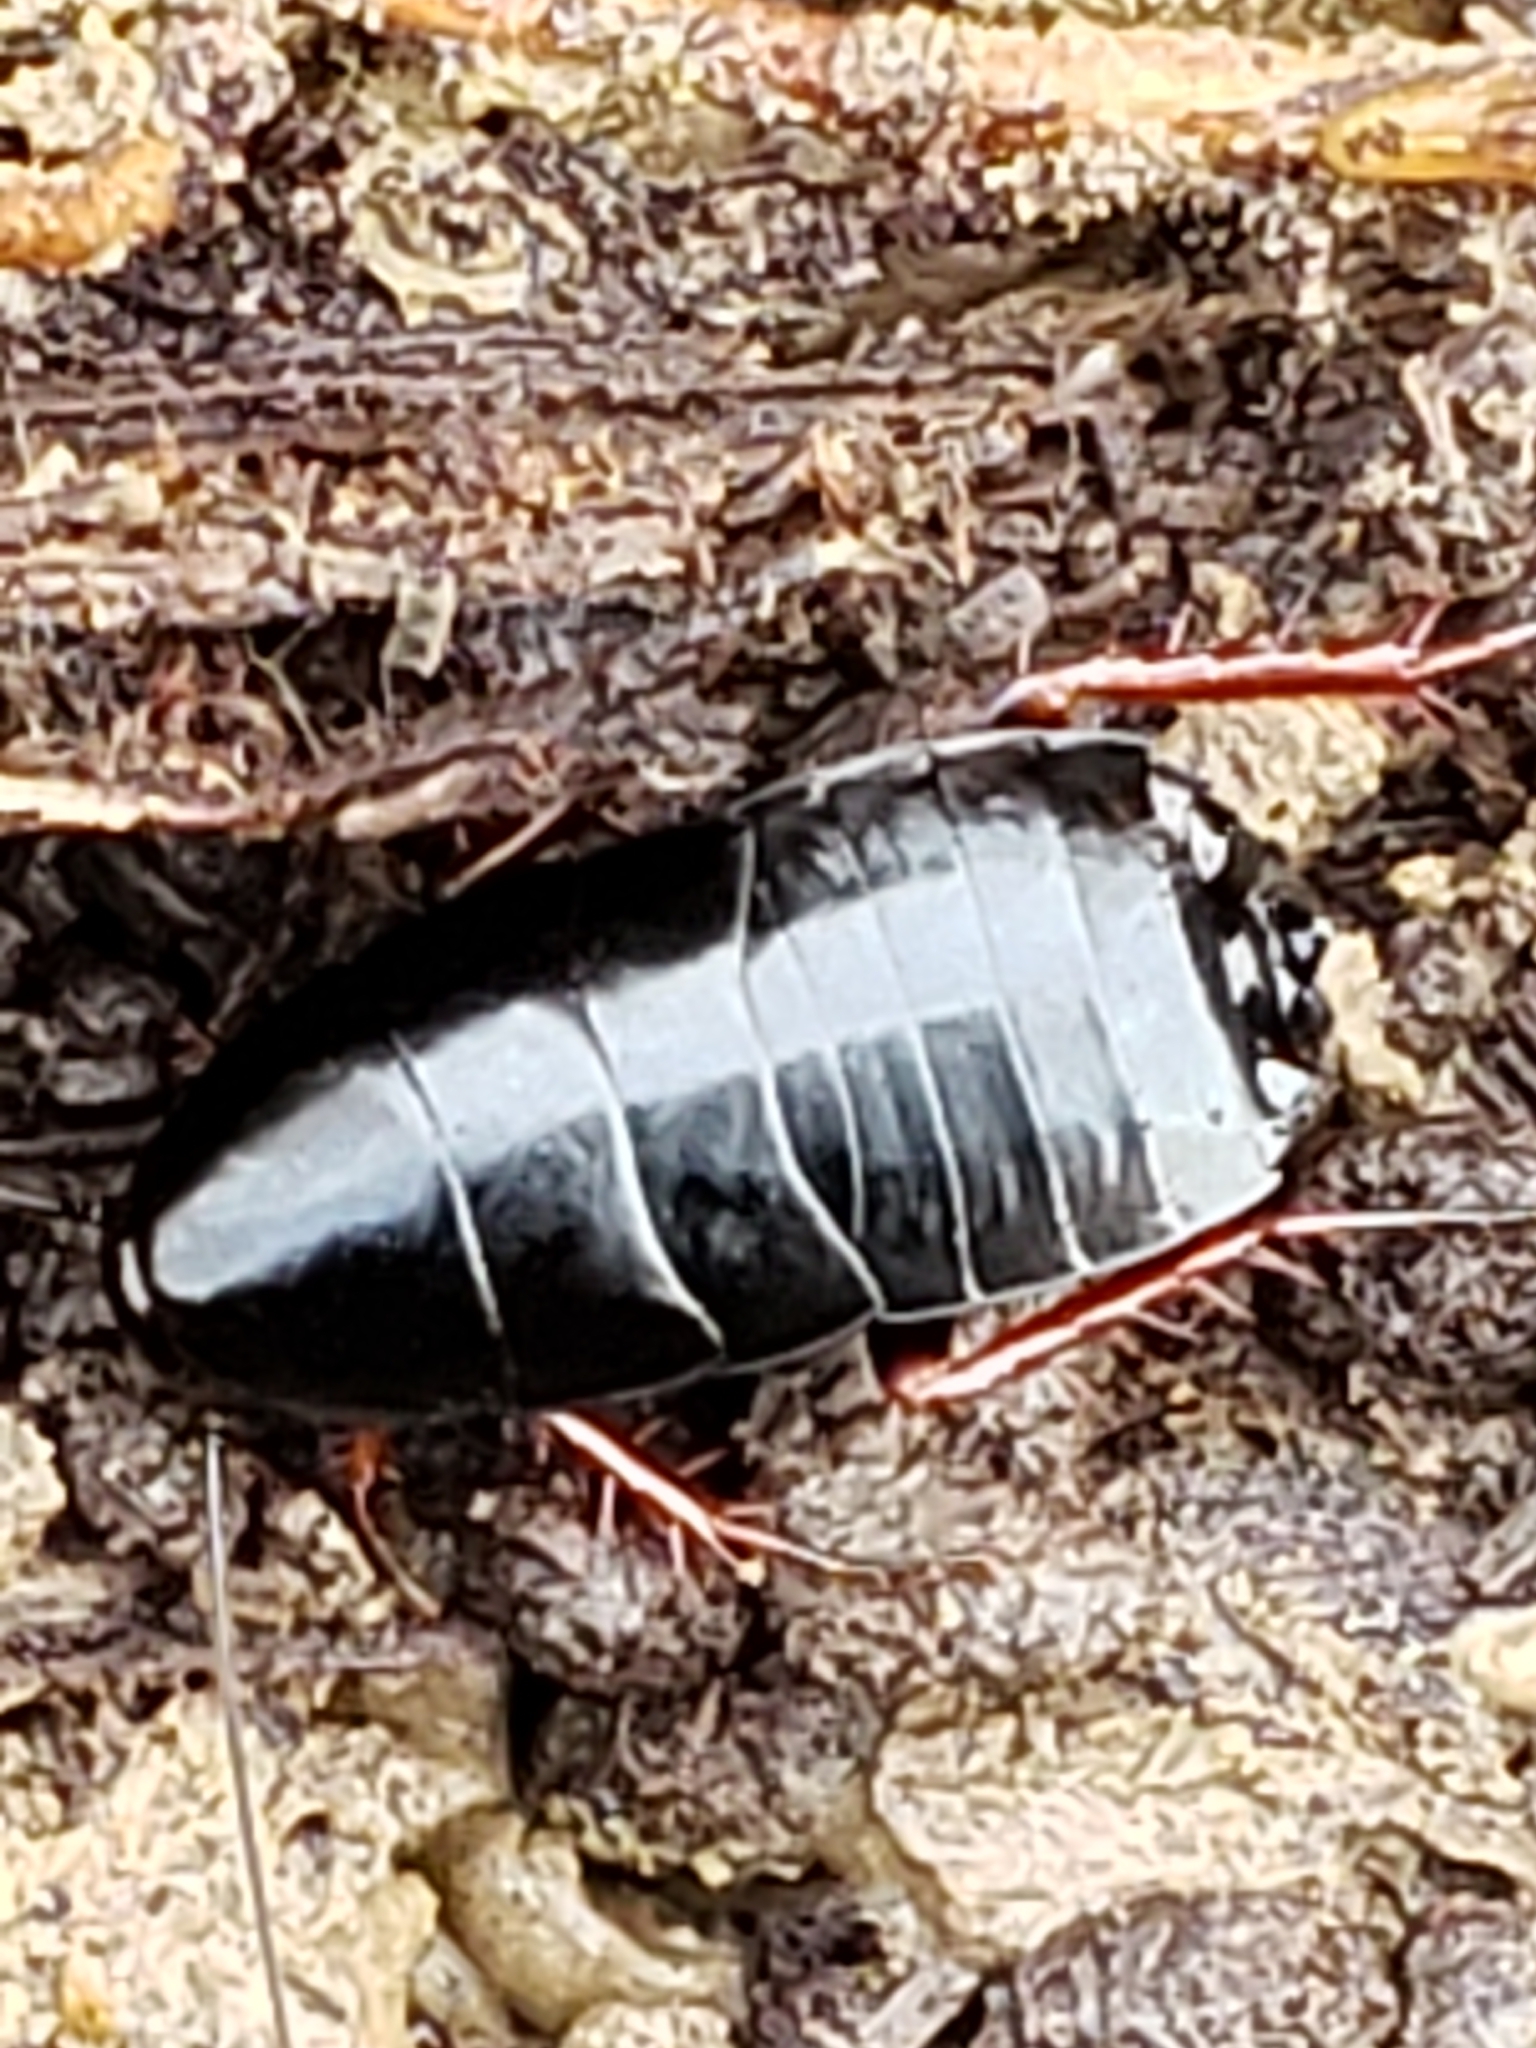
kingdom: Animalia
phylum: Arthropoda
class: Insecta
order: Blattodea
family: Ectobiidae
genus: Ischnoptera
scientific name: Ischnoptera deropeltiformis
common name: Dark wood cockroach
